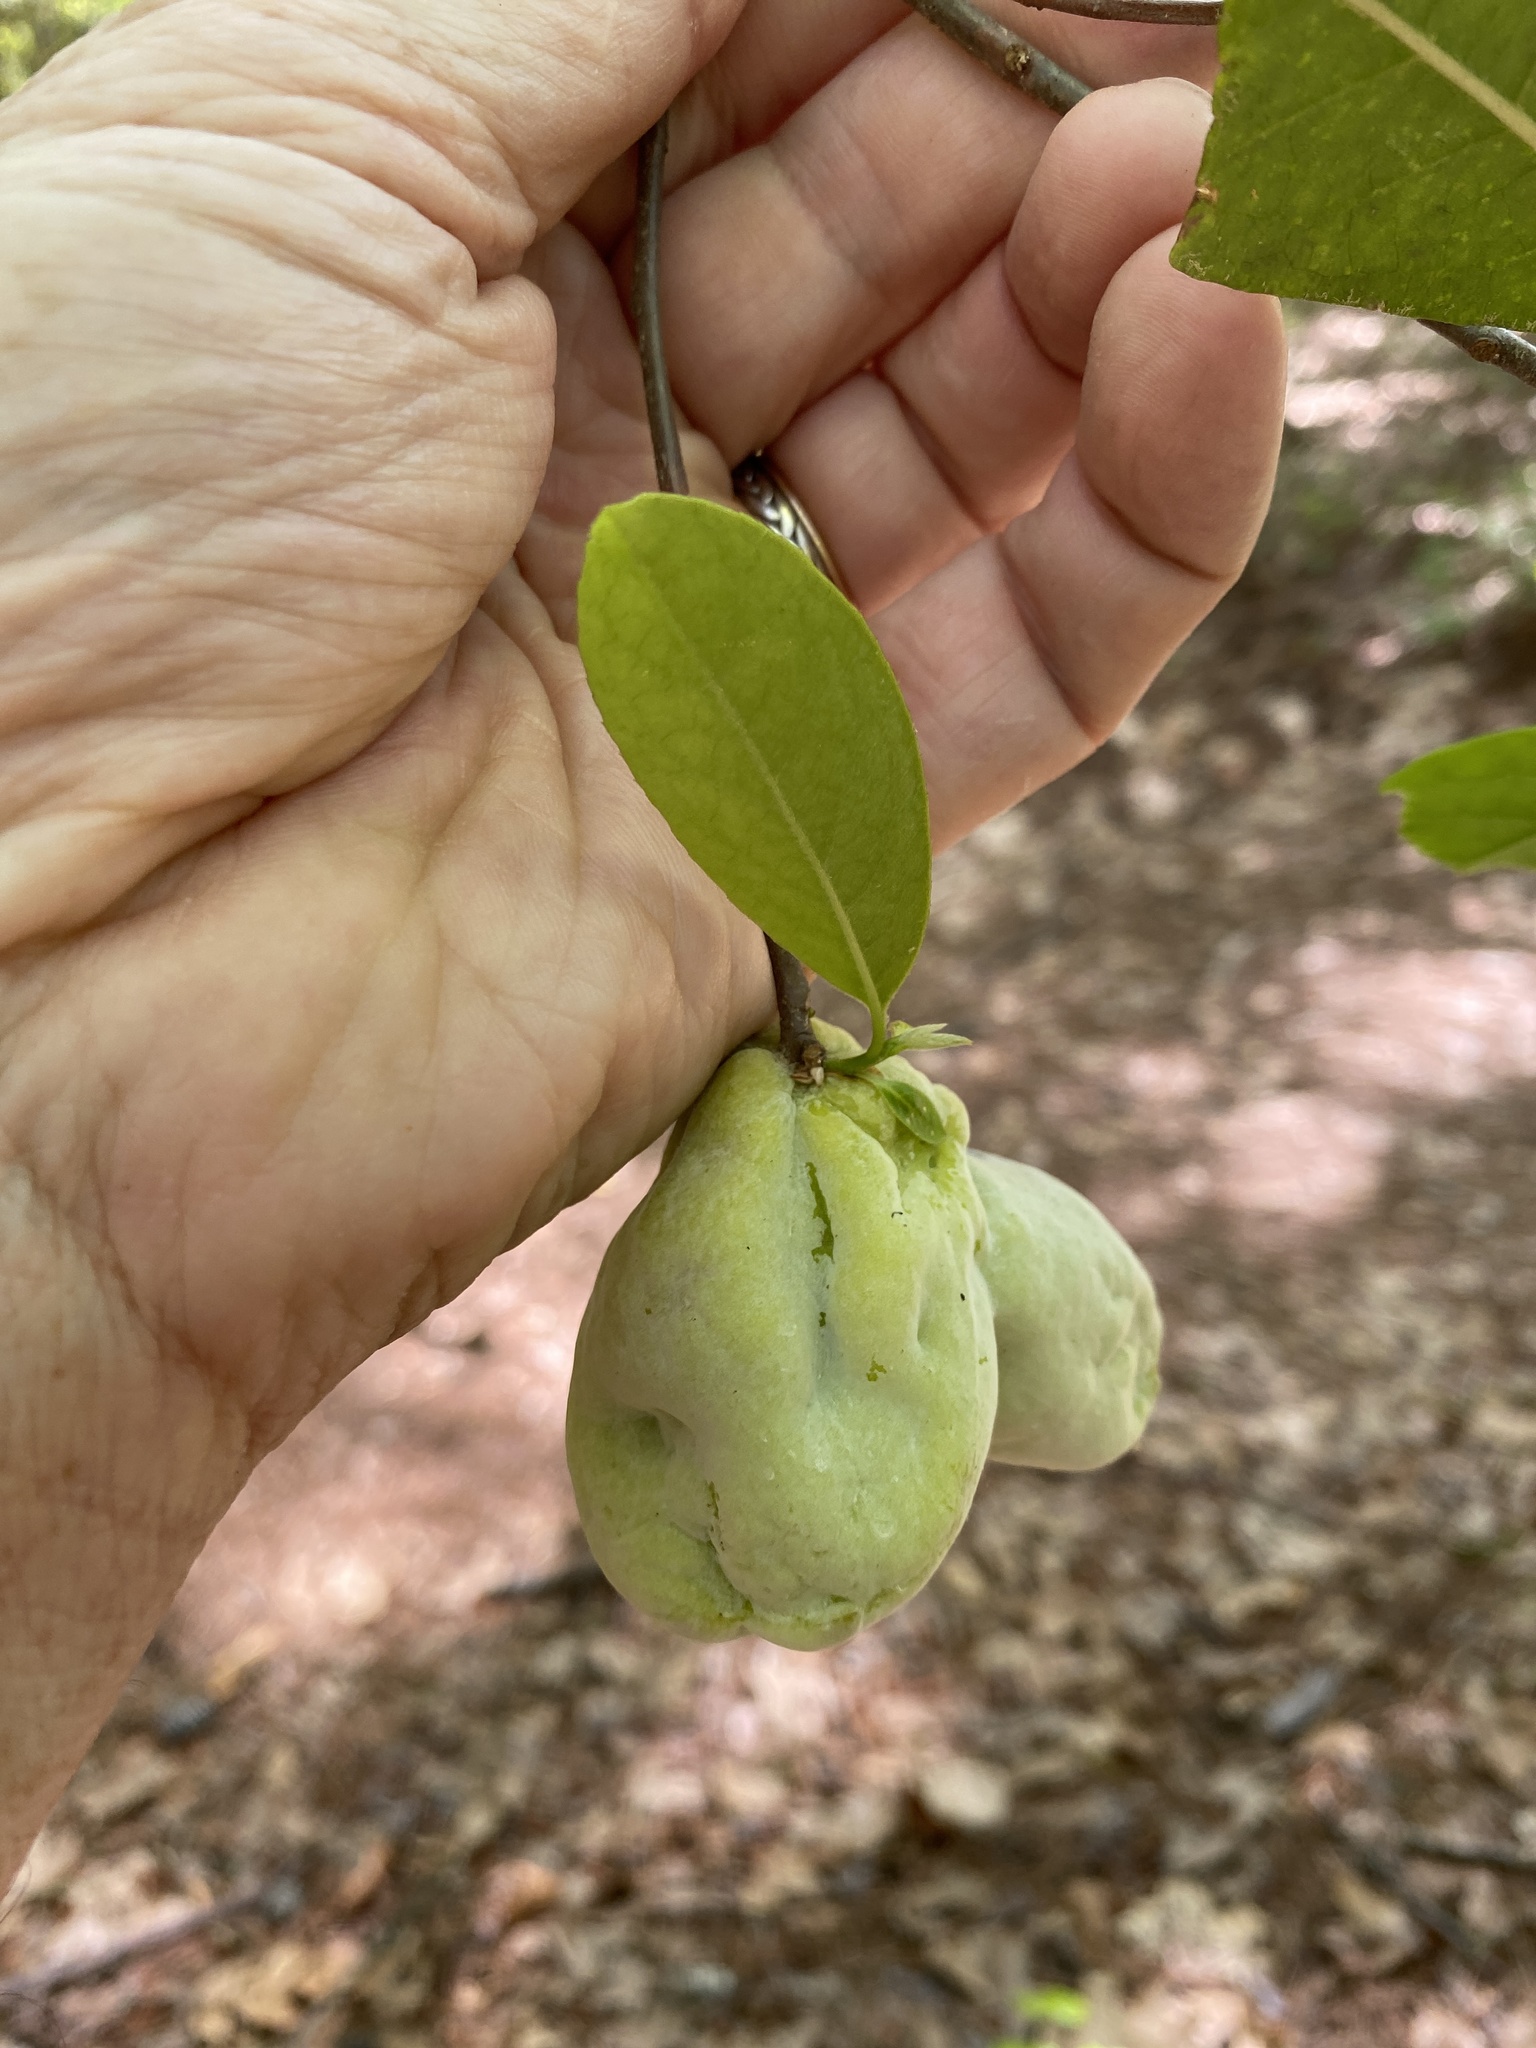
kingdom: Fungi
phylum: Basidiomycota
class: Exobasidiomycetes
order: Exobasidiales
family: Exobasidiaceae
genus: Exobasidium
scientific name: Exobasidium symploci
